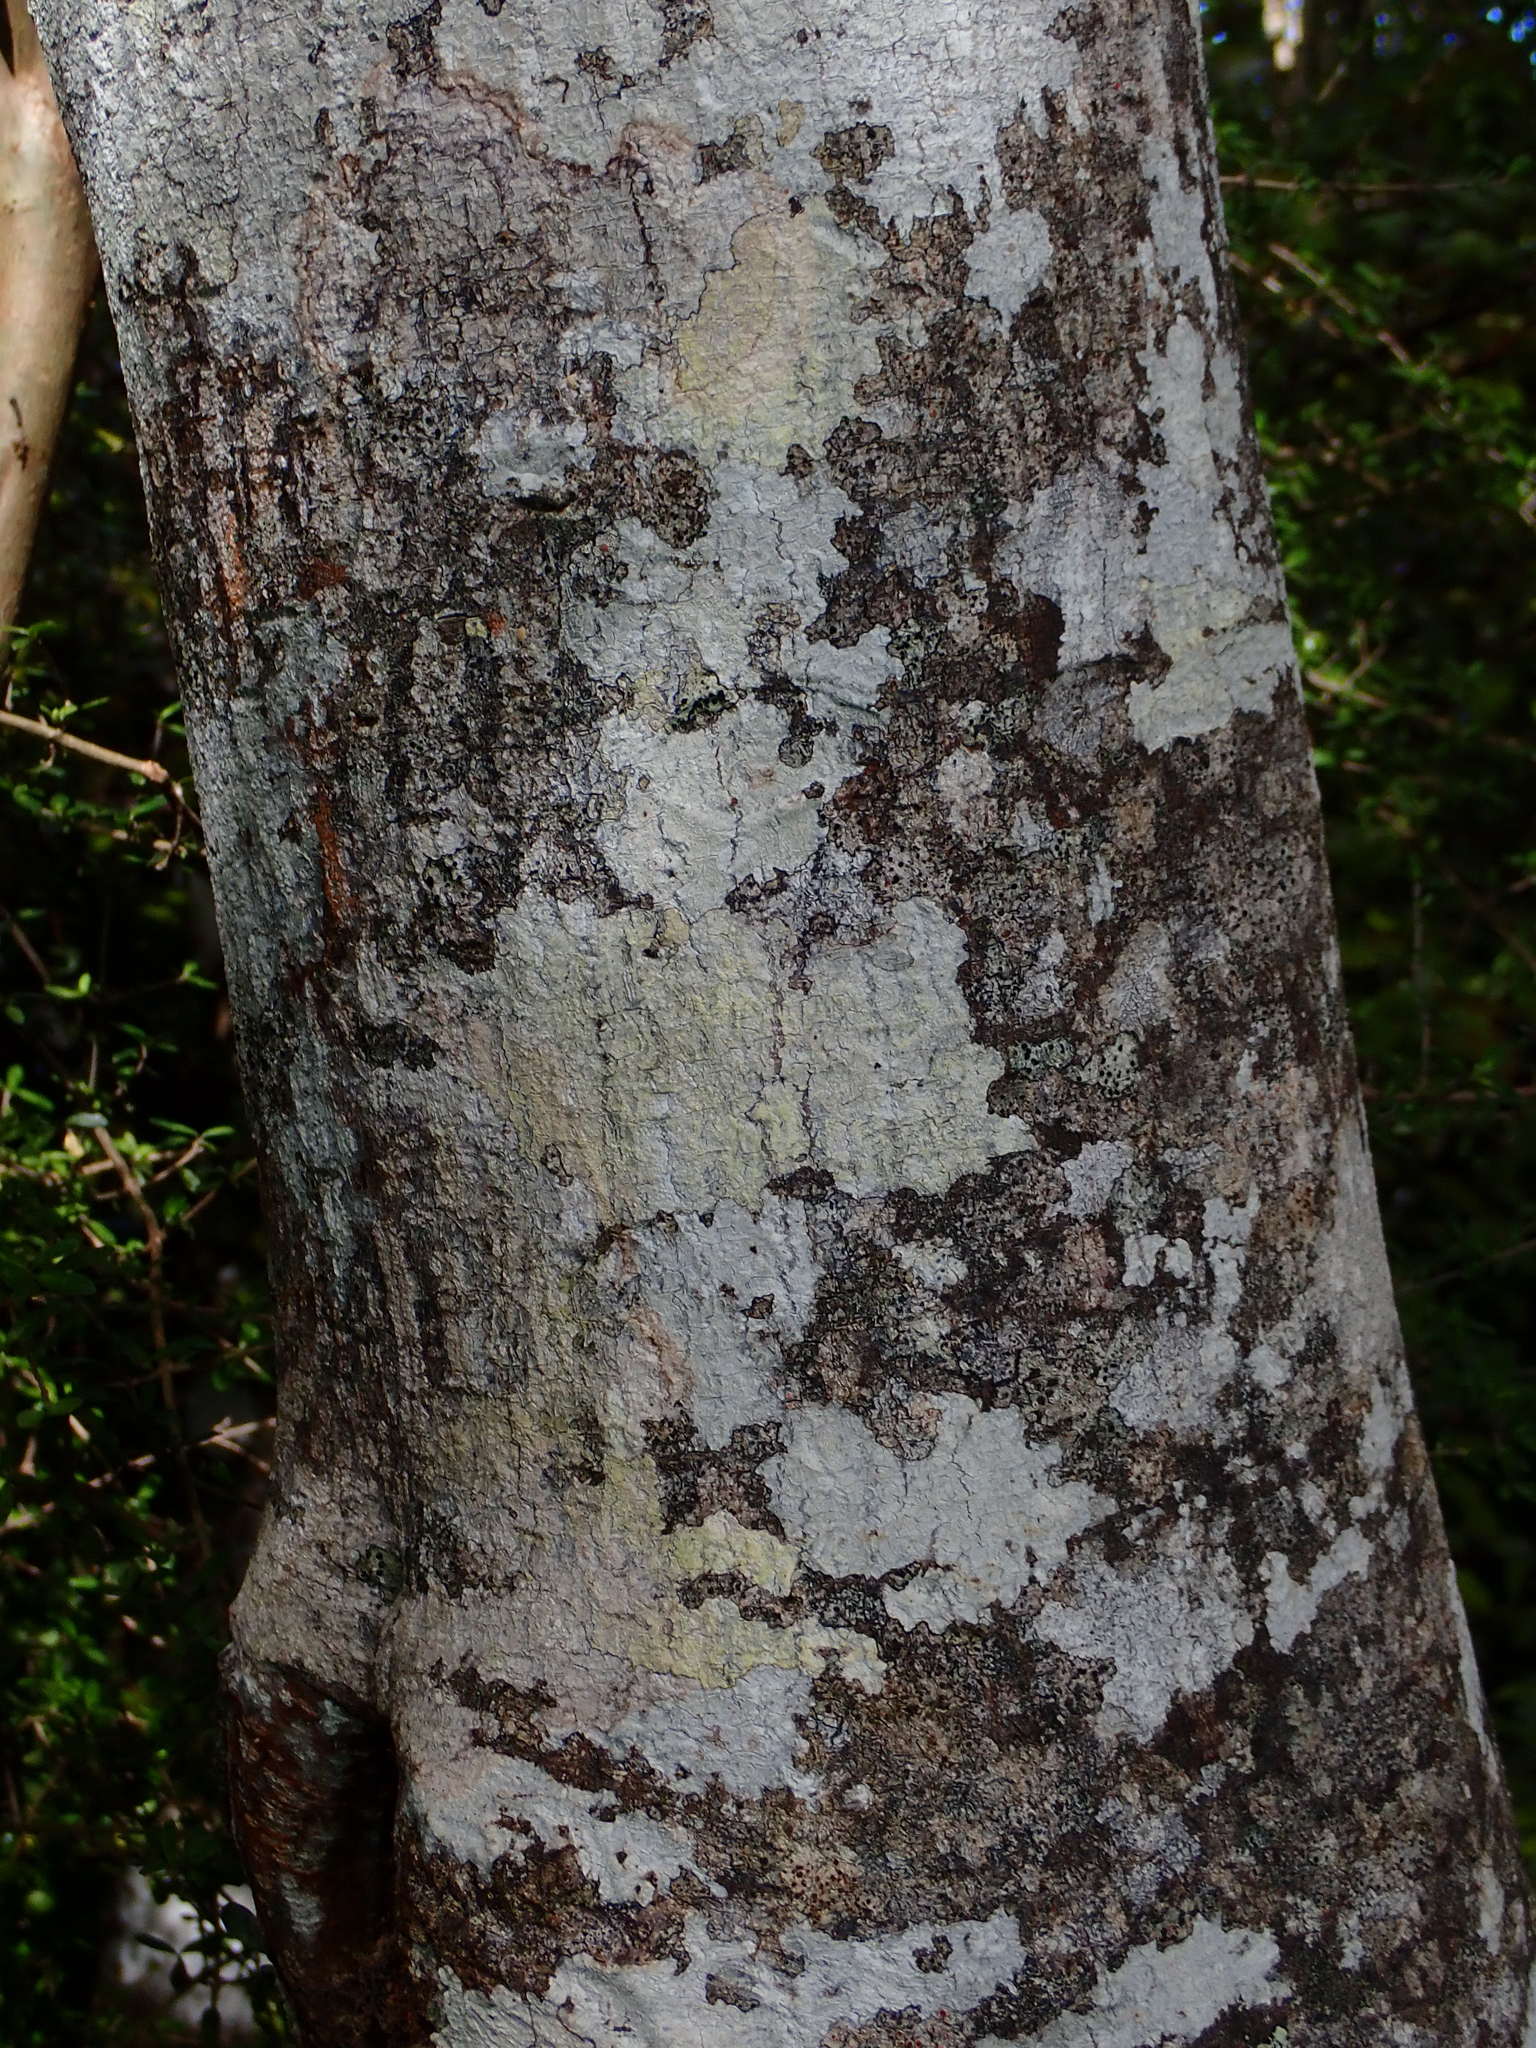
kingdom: Plantae
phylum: Tracheophyta
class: Magnoliopsida
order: Oxalidales
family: Elaeocarpaceae
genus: Aristotelia
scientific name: Aristotelia serrata
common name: New zealand wineberry
